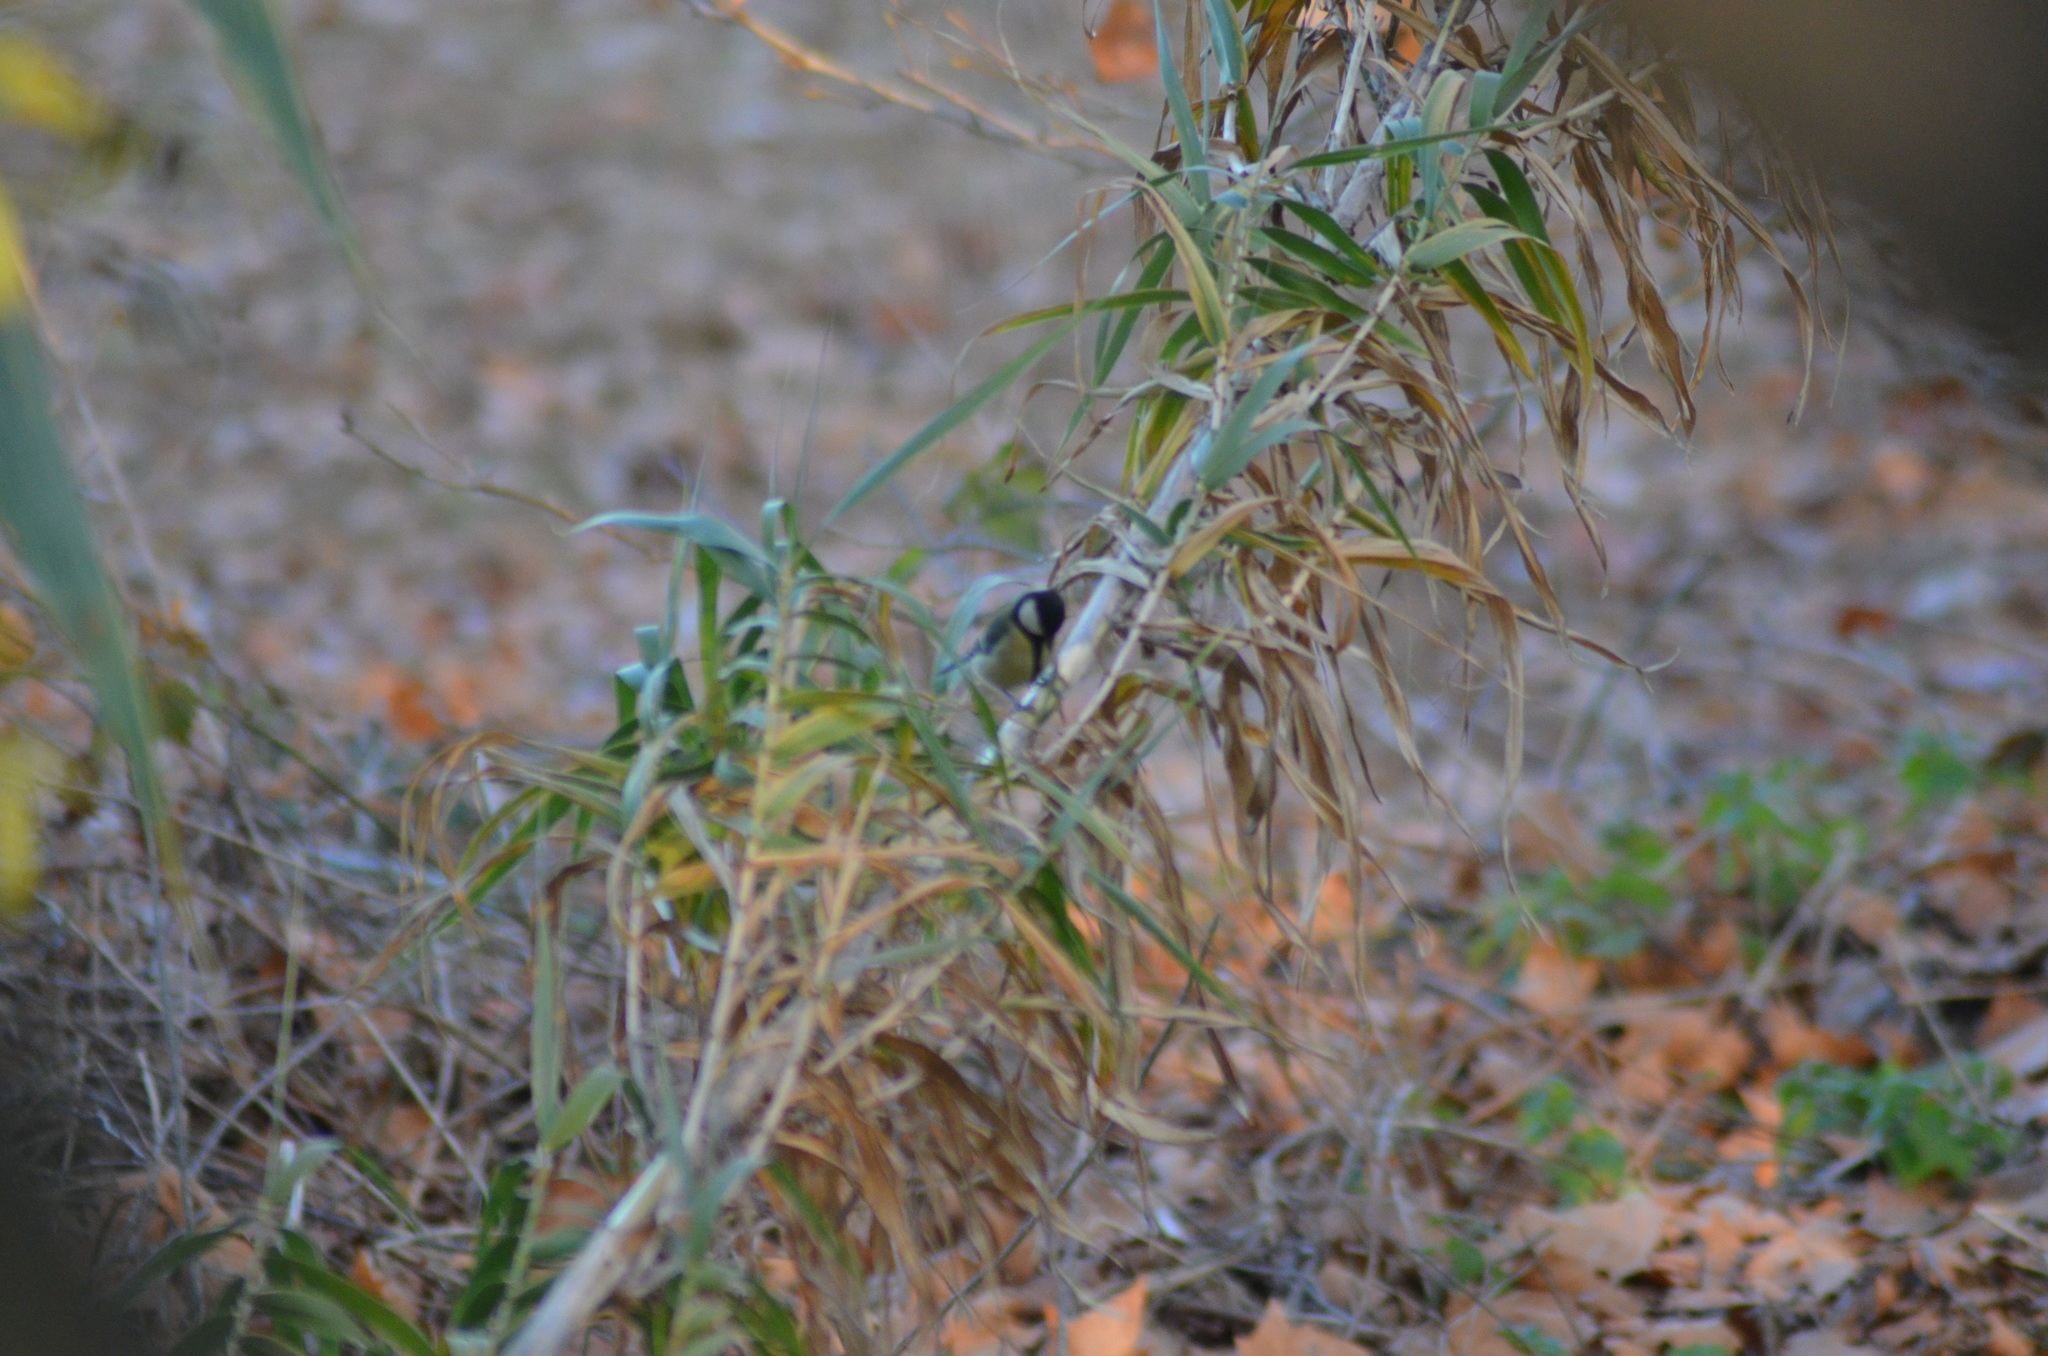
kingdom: Animalia
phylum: Chordata
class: Aves
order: Passeriformes
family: Paridae
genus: Parus
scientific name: Parus major
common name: Great tit
